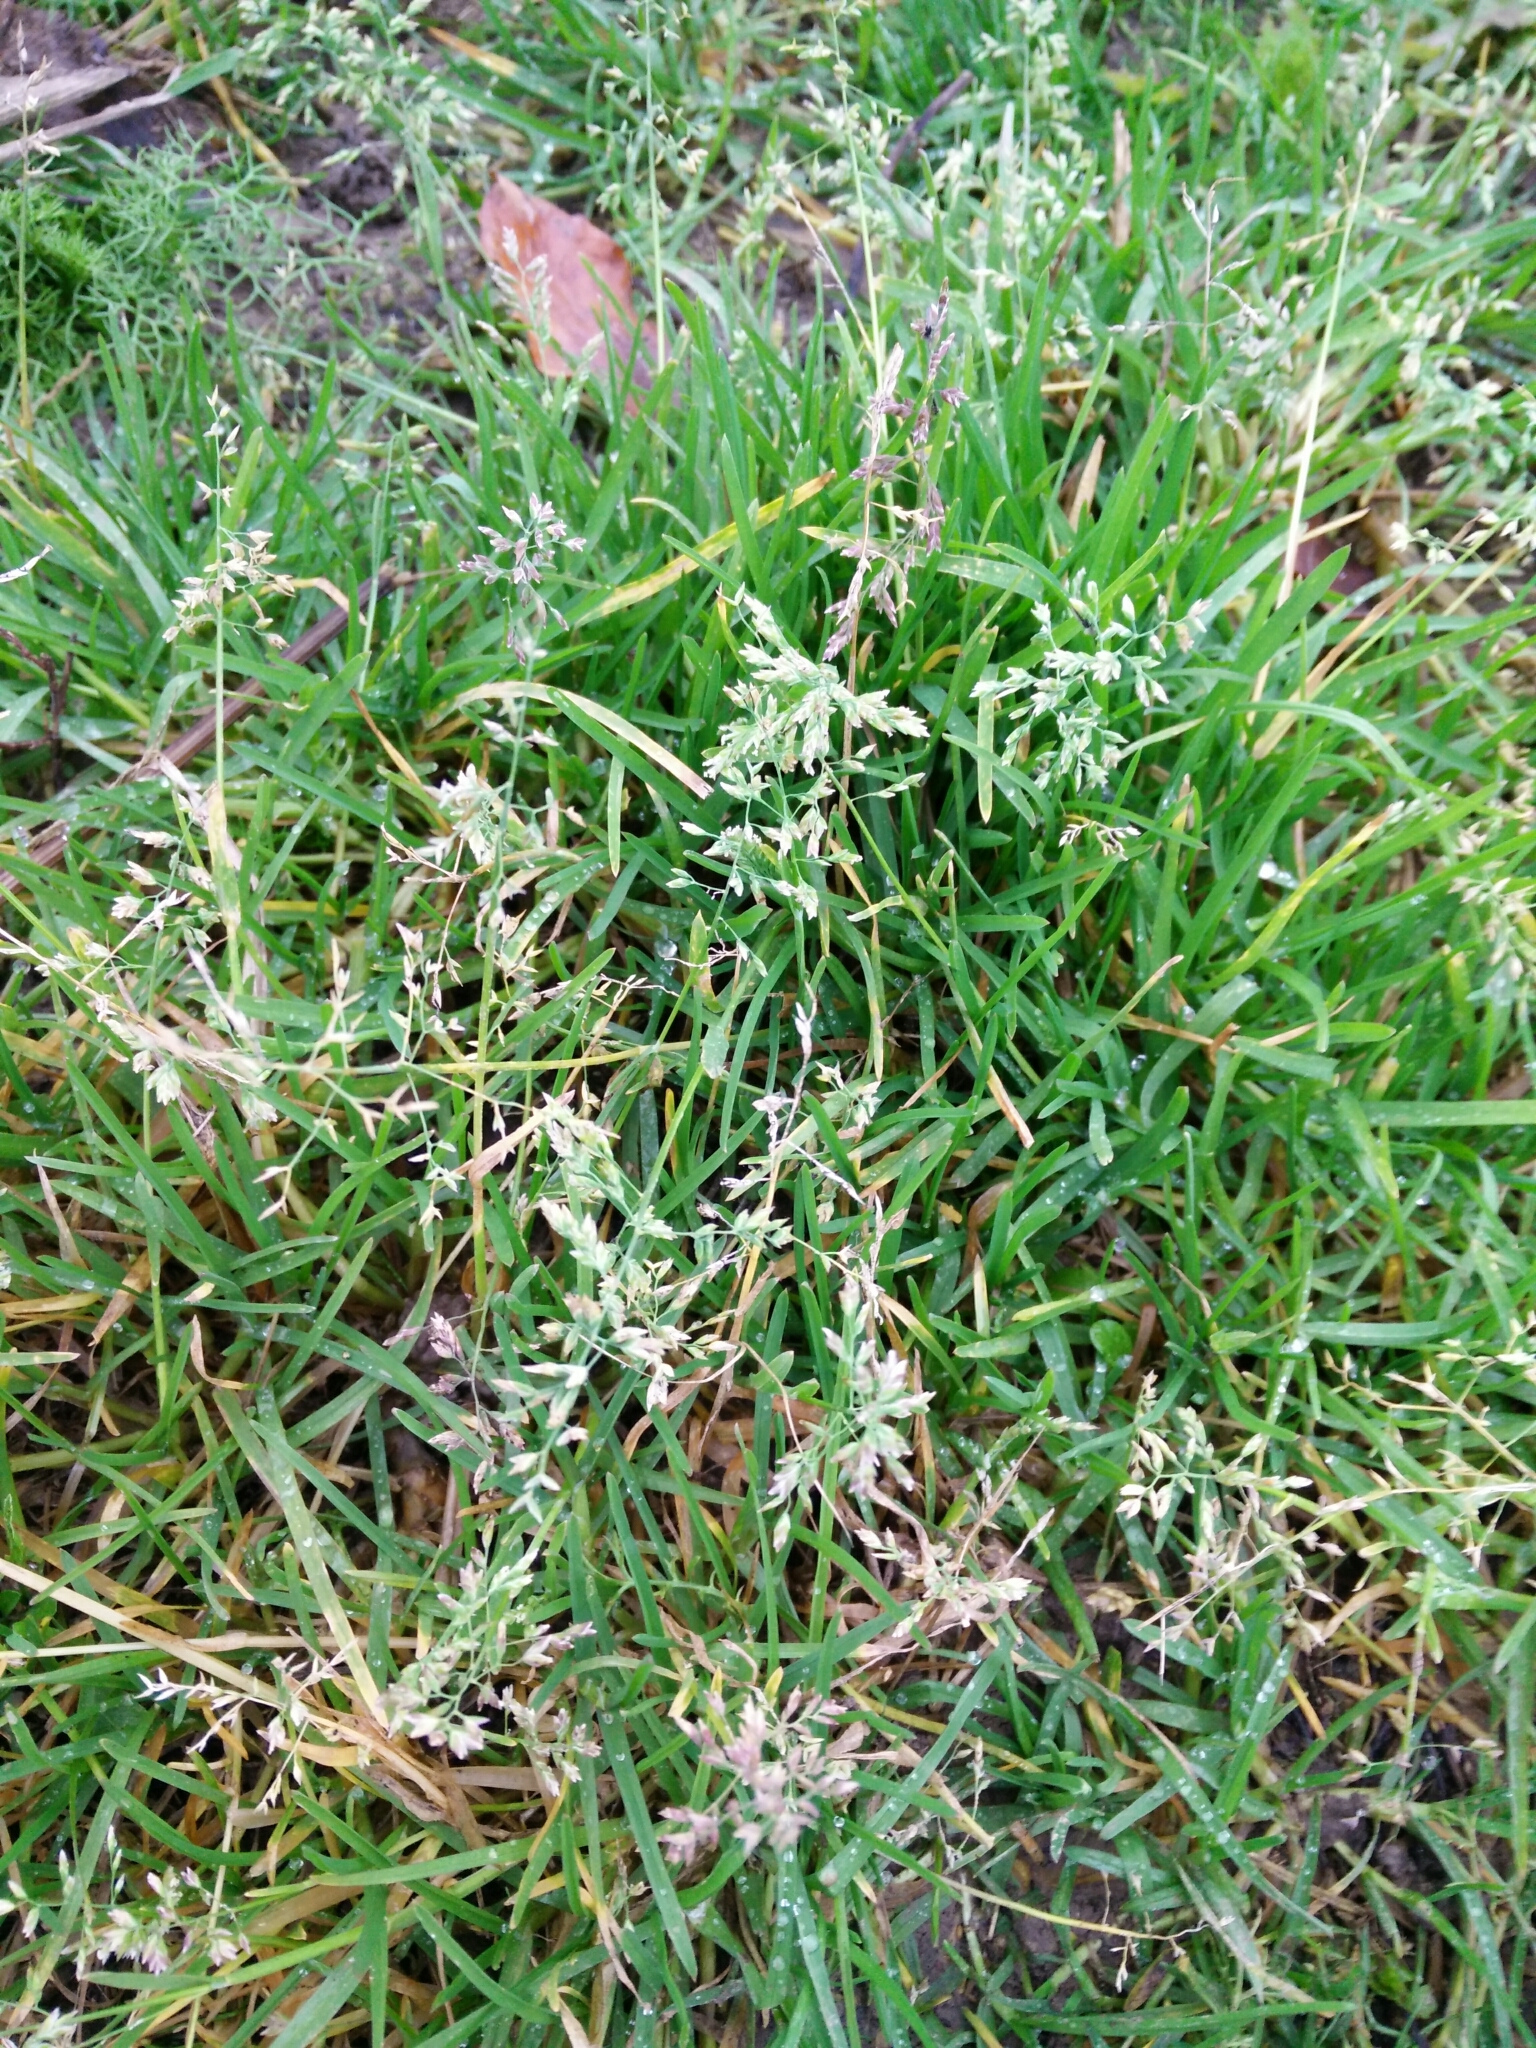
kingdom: Plantae
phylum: Tracheophyta
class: Liliopsida
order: Poales
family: Poaceae
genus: Poa
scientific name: Poa annua
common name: Annual bluegrass
